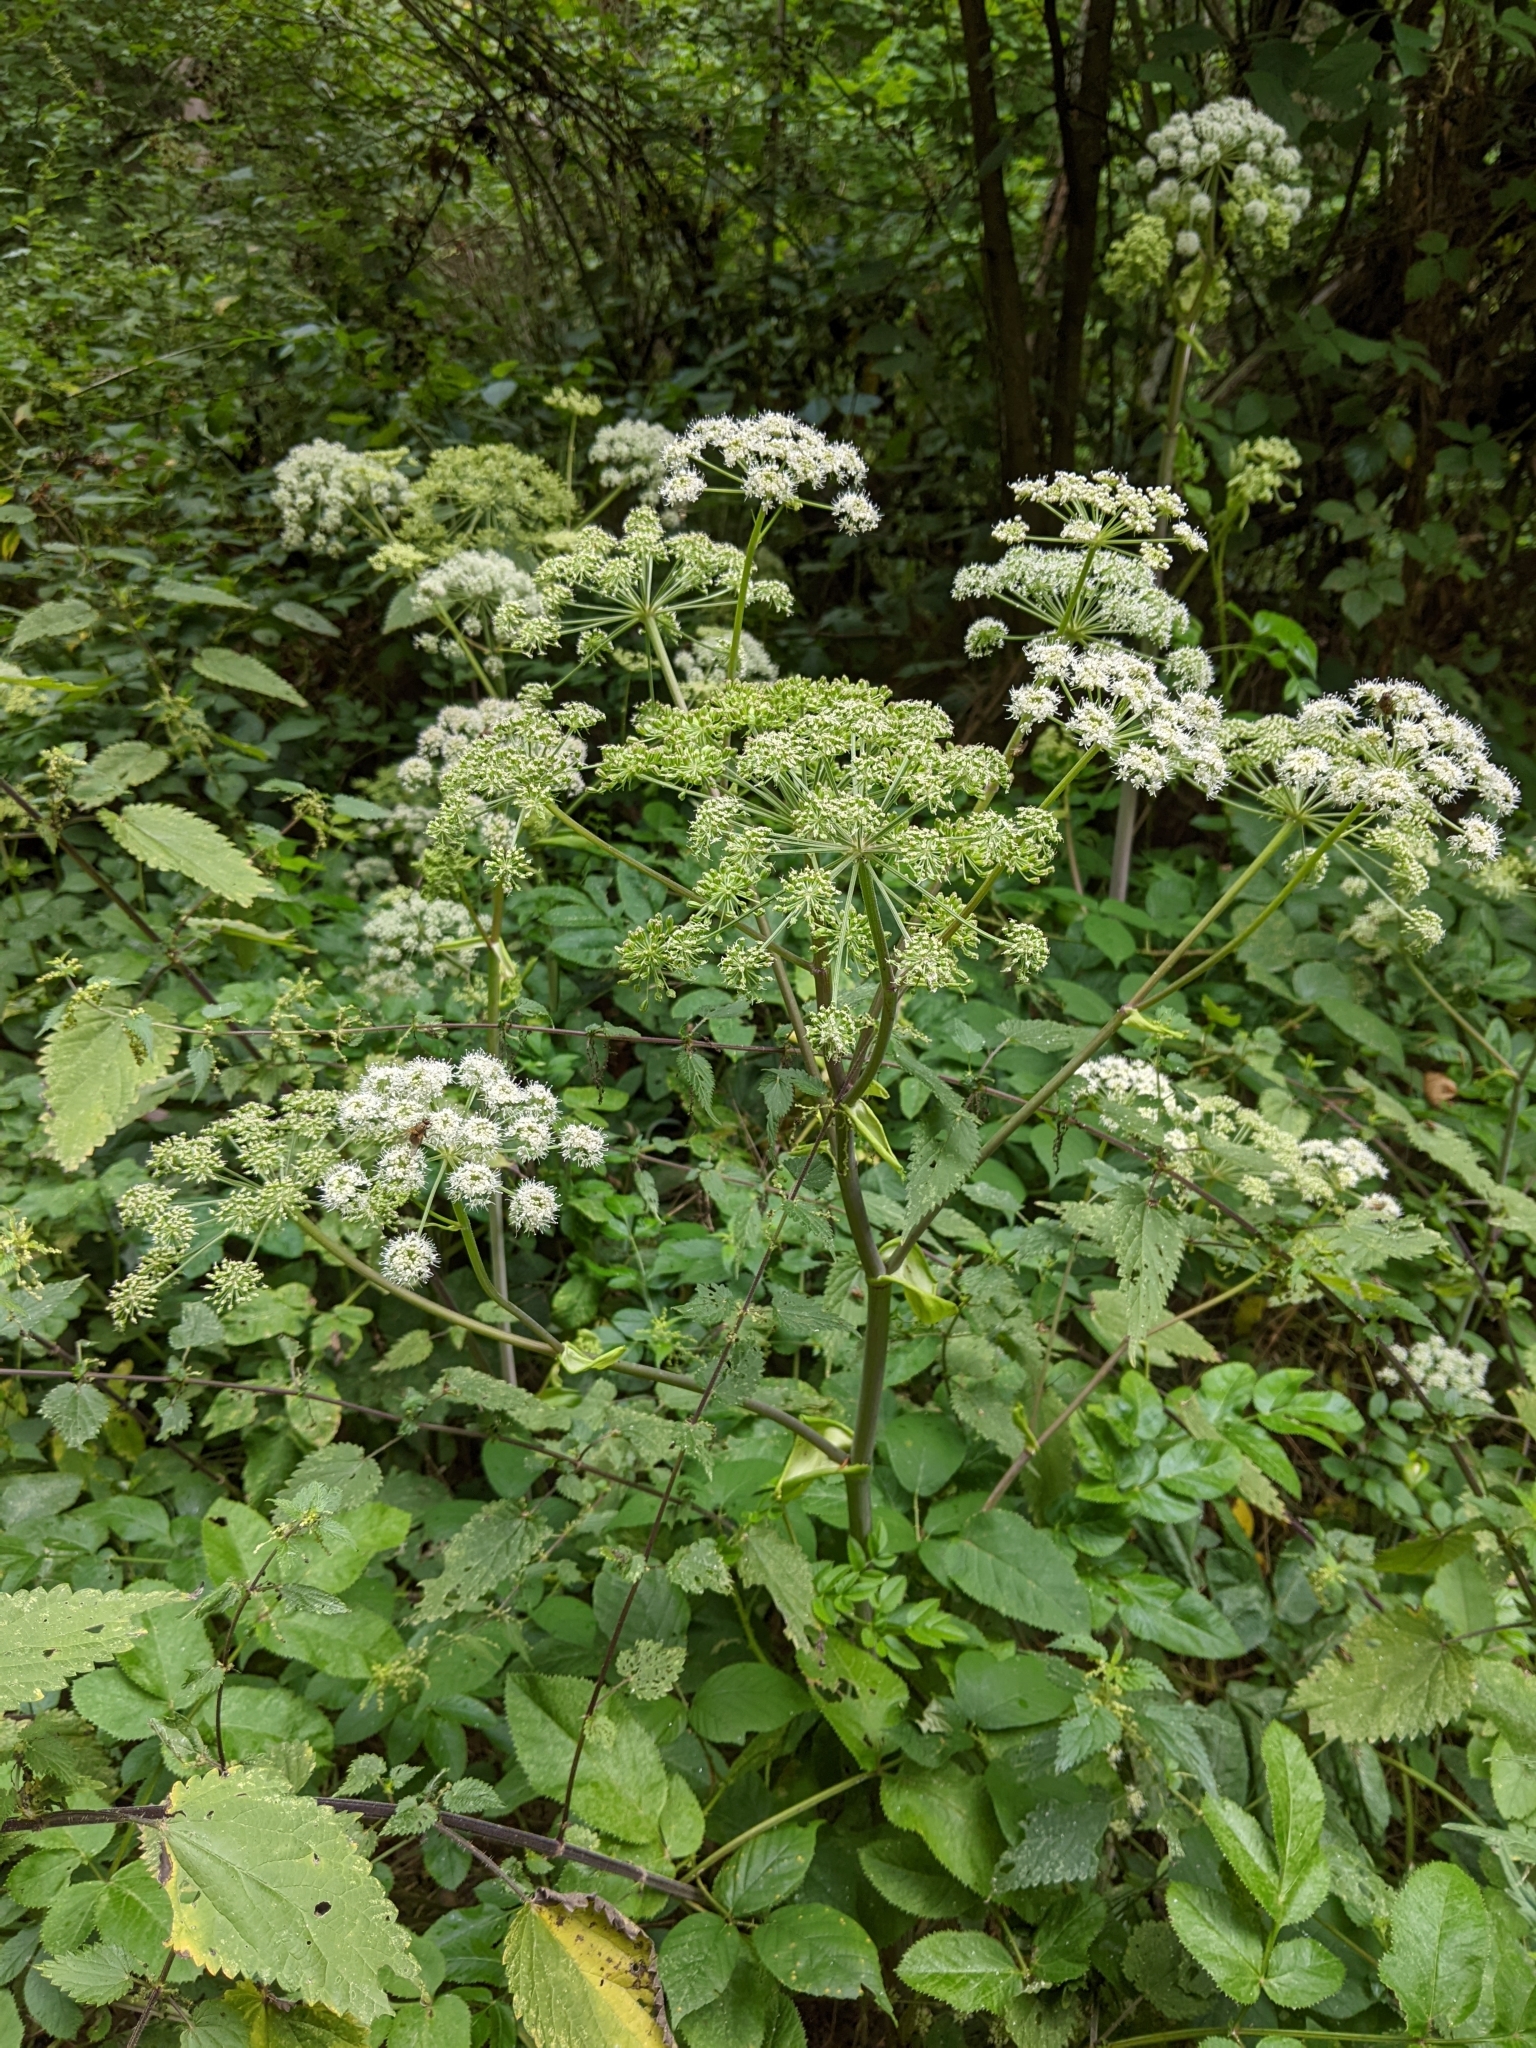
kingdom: Plantae
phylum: Tracheophyta
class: Magnoliopsida
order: Apiales
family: Apiaceae
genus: Angelica
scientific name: Angelica sylvestris
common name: Wild angelica
